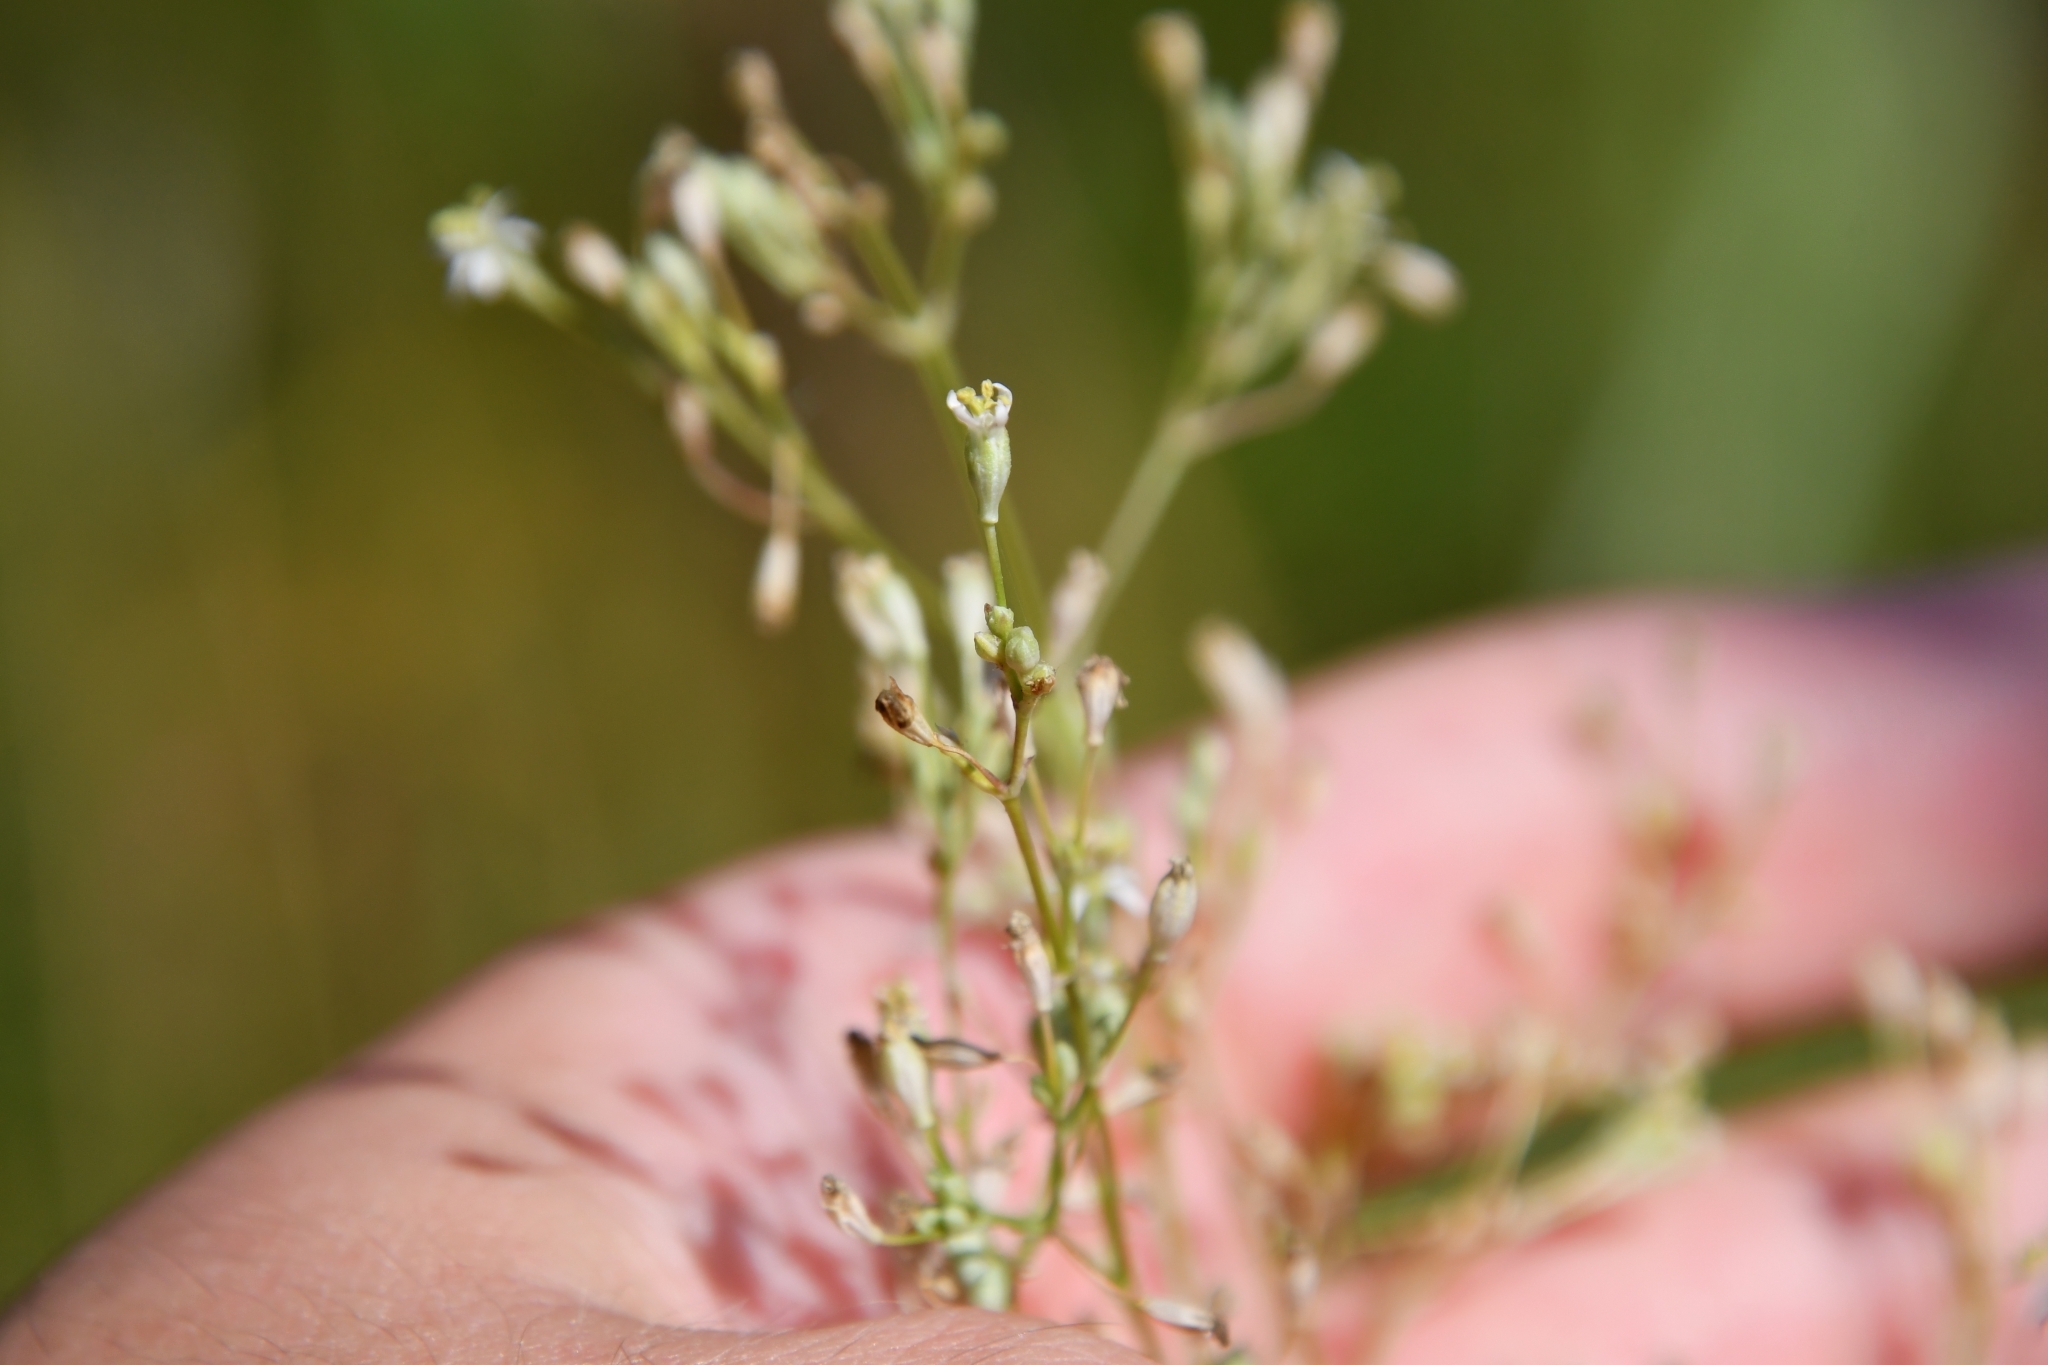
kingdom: Plantae
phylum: Tracheophyta
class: Magnoliopsida
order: Caryophyllales
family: Caryophyllaceae
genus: Silene
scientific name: Silene wolgensis
